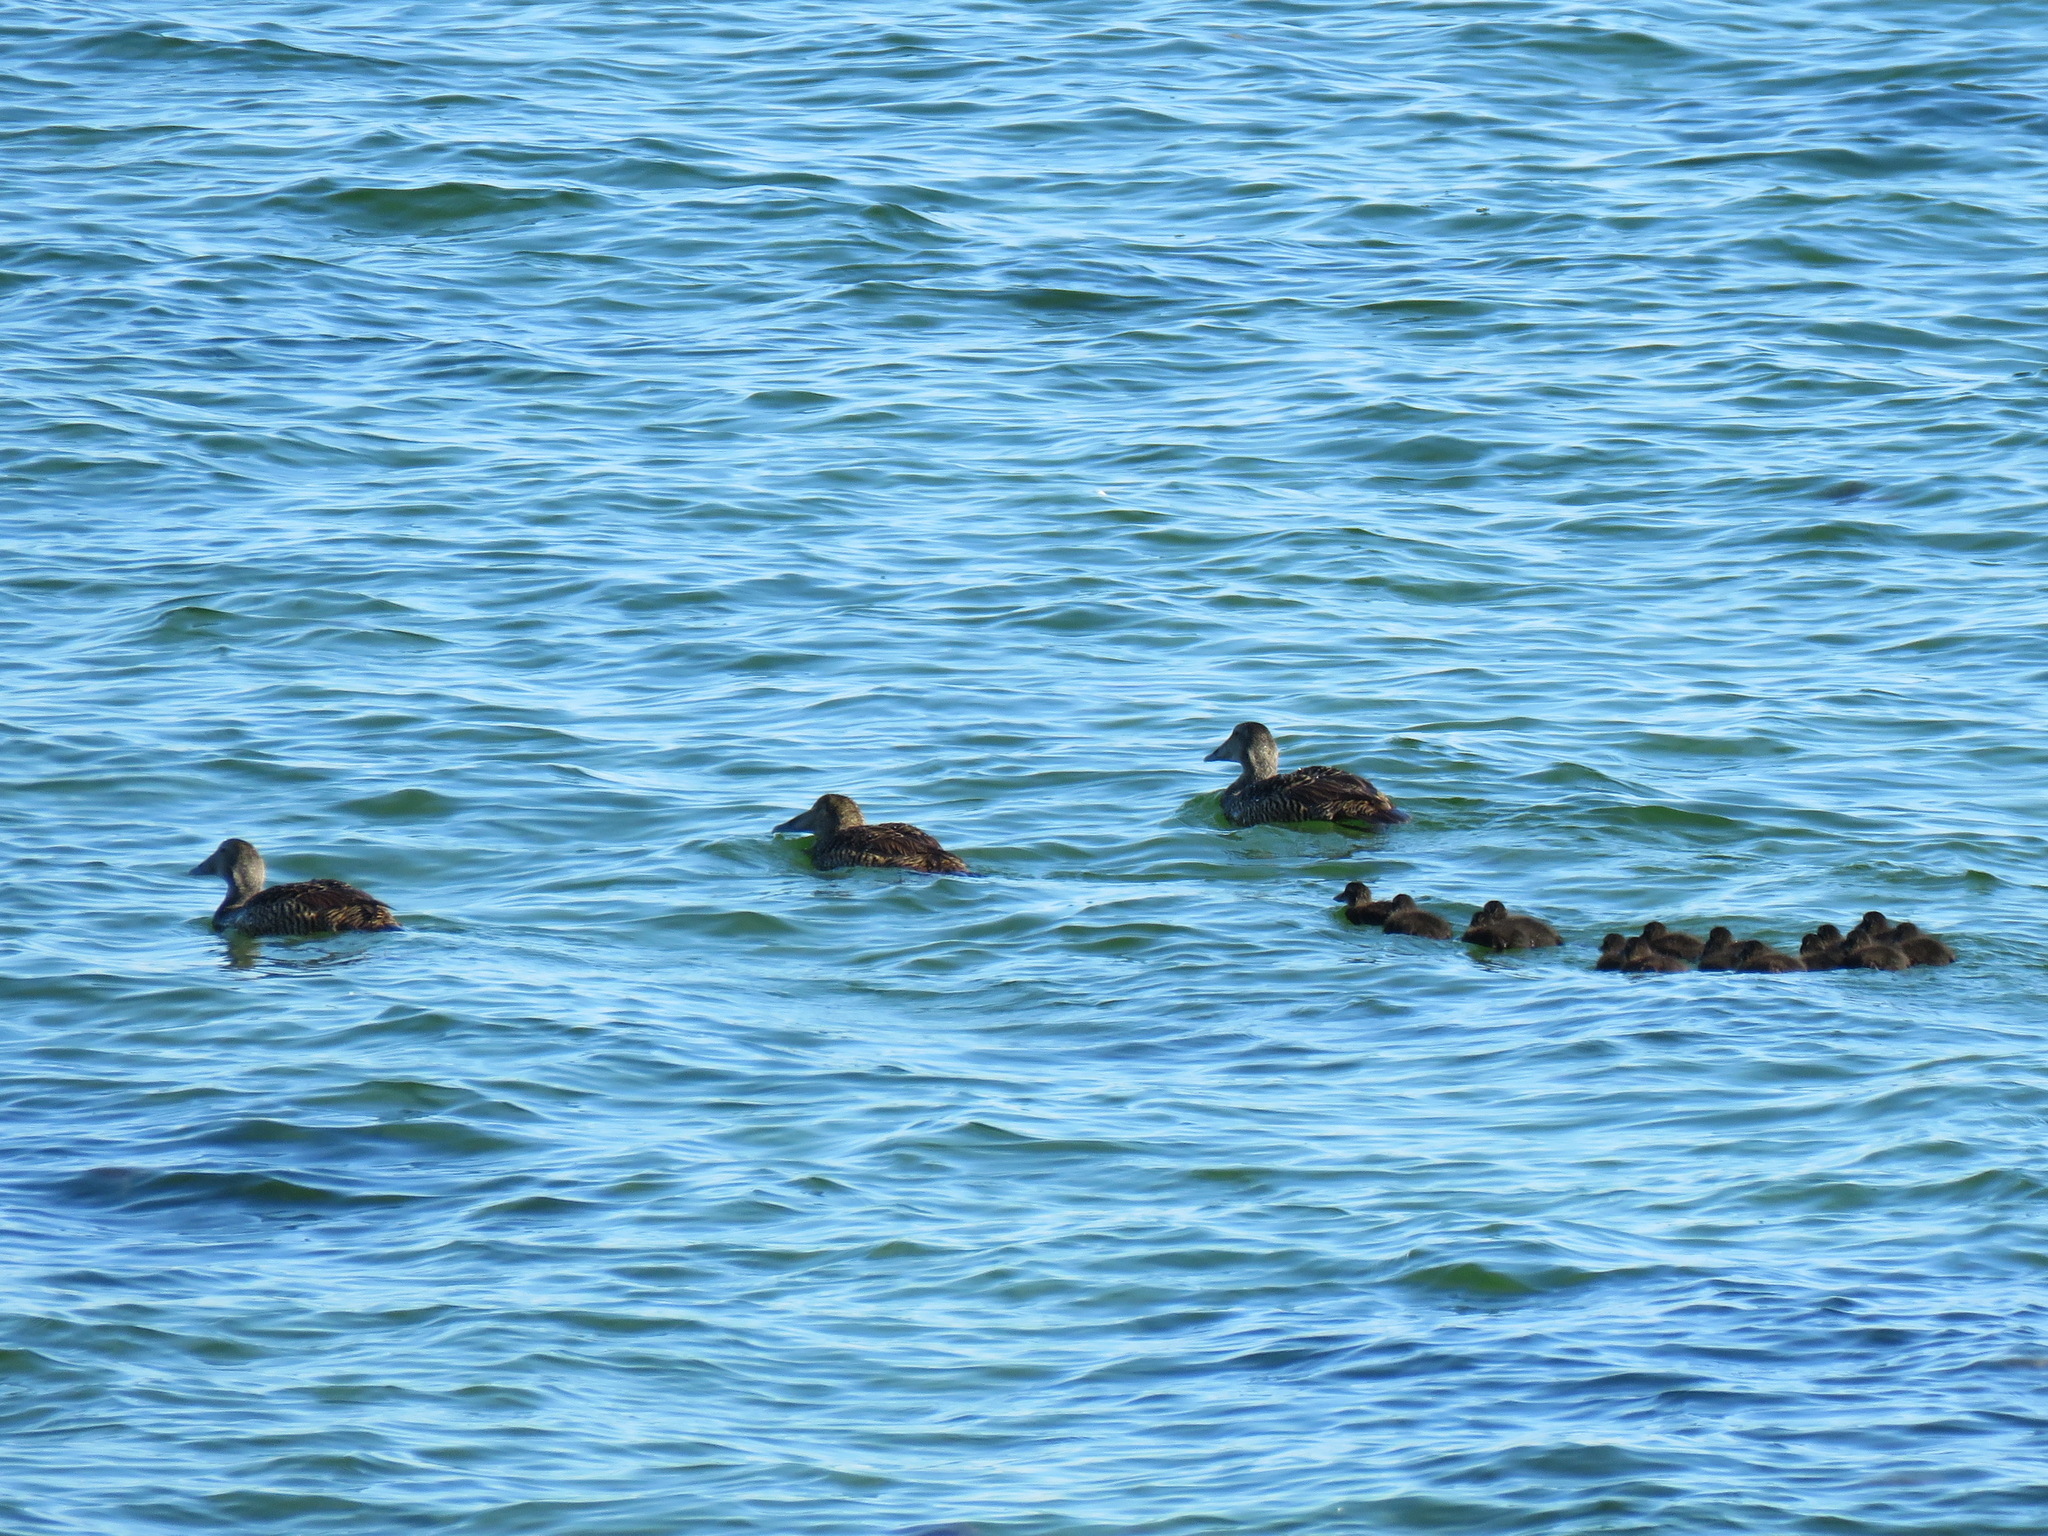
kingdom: Animalia
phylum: Chordata
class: Aves
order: Anseriformes
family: Anatidae
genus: Somateria
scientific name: Somateria mollissima
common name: Common eider
